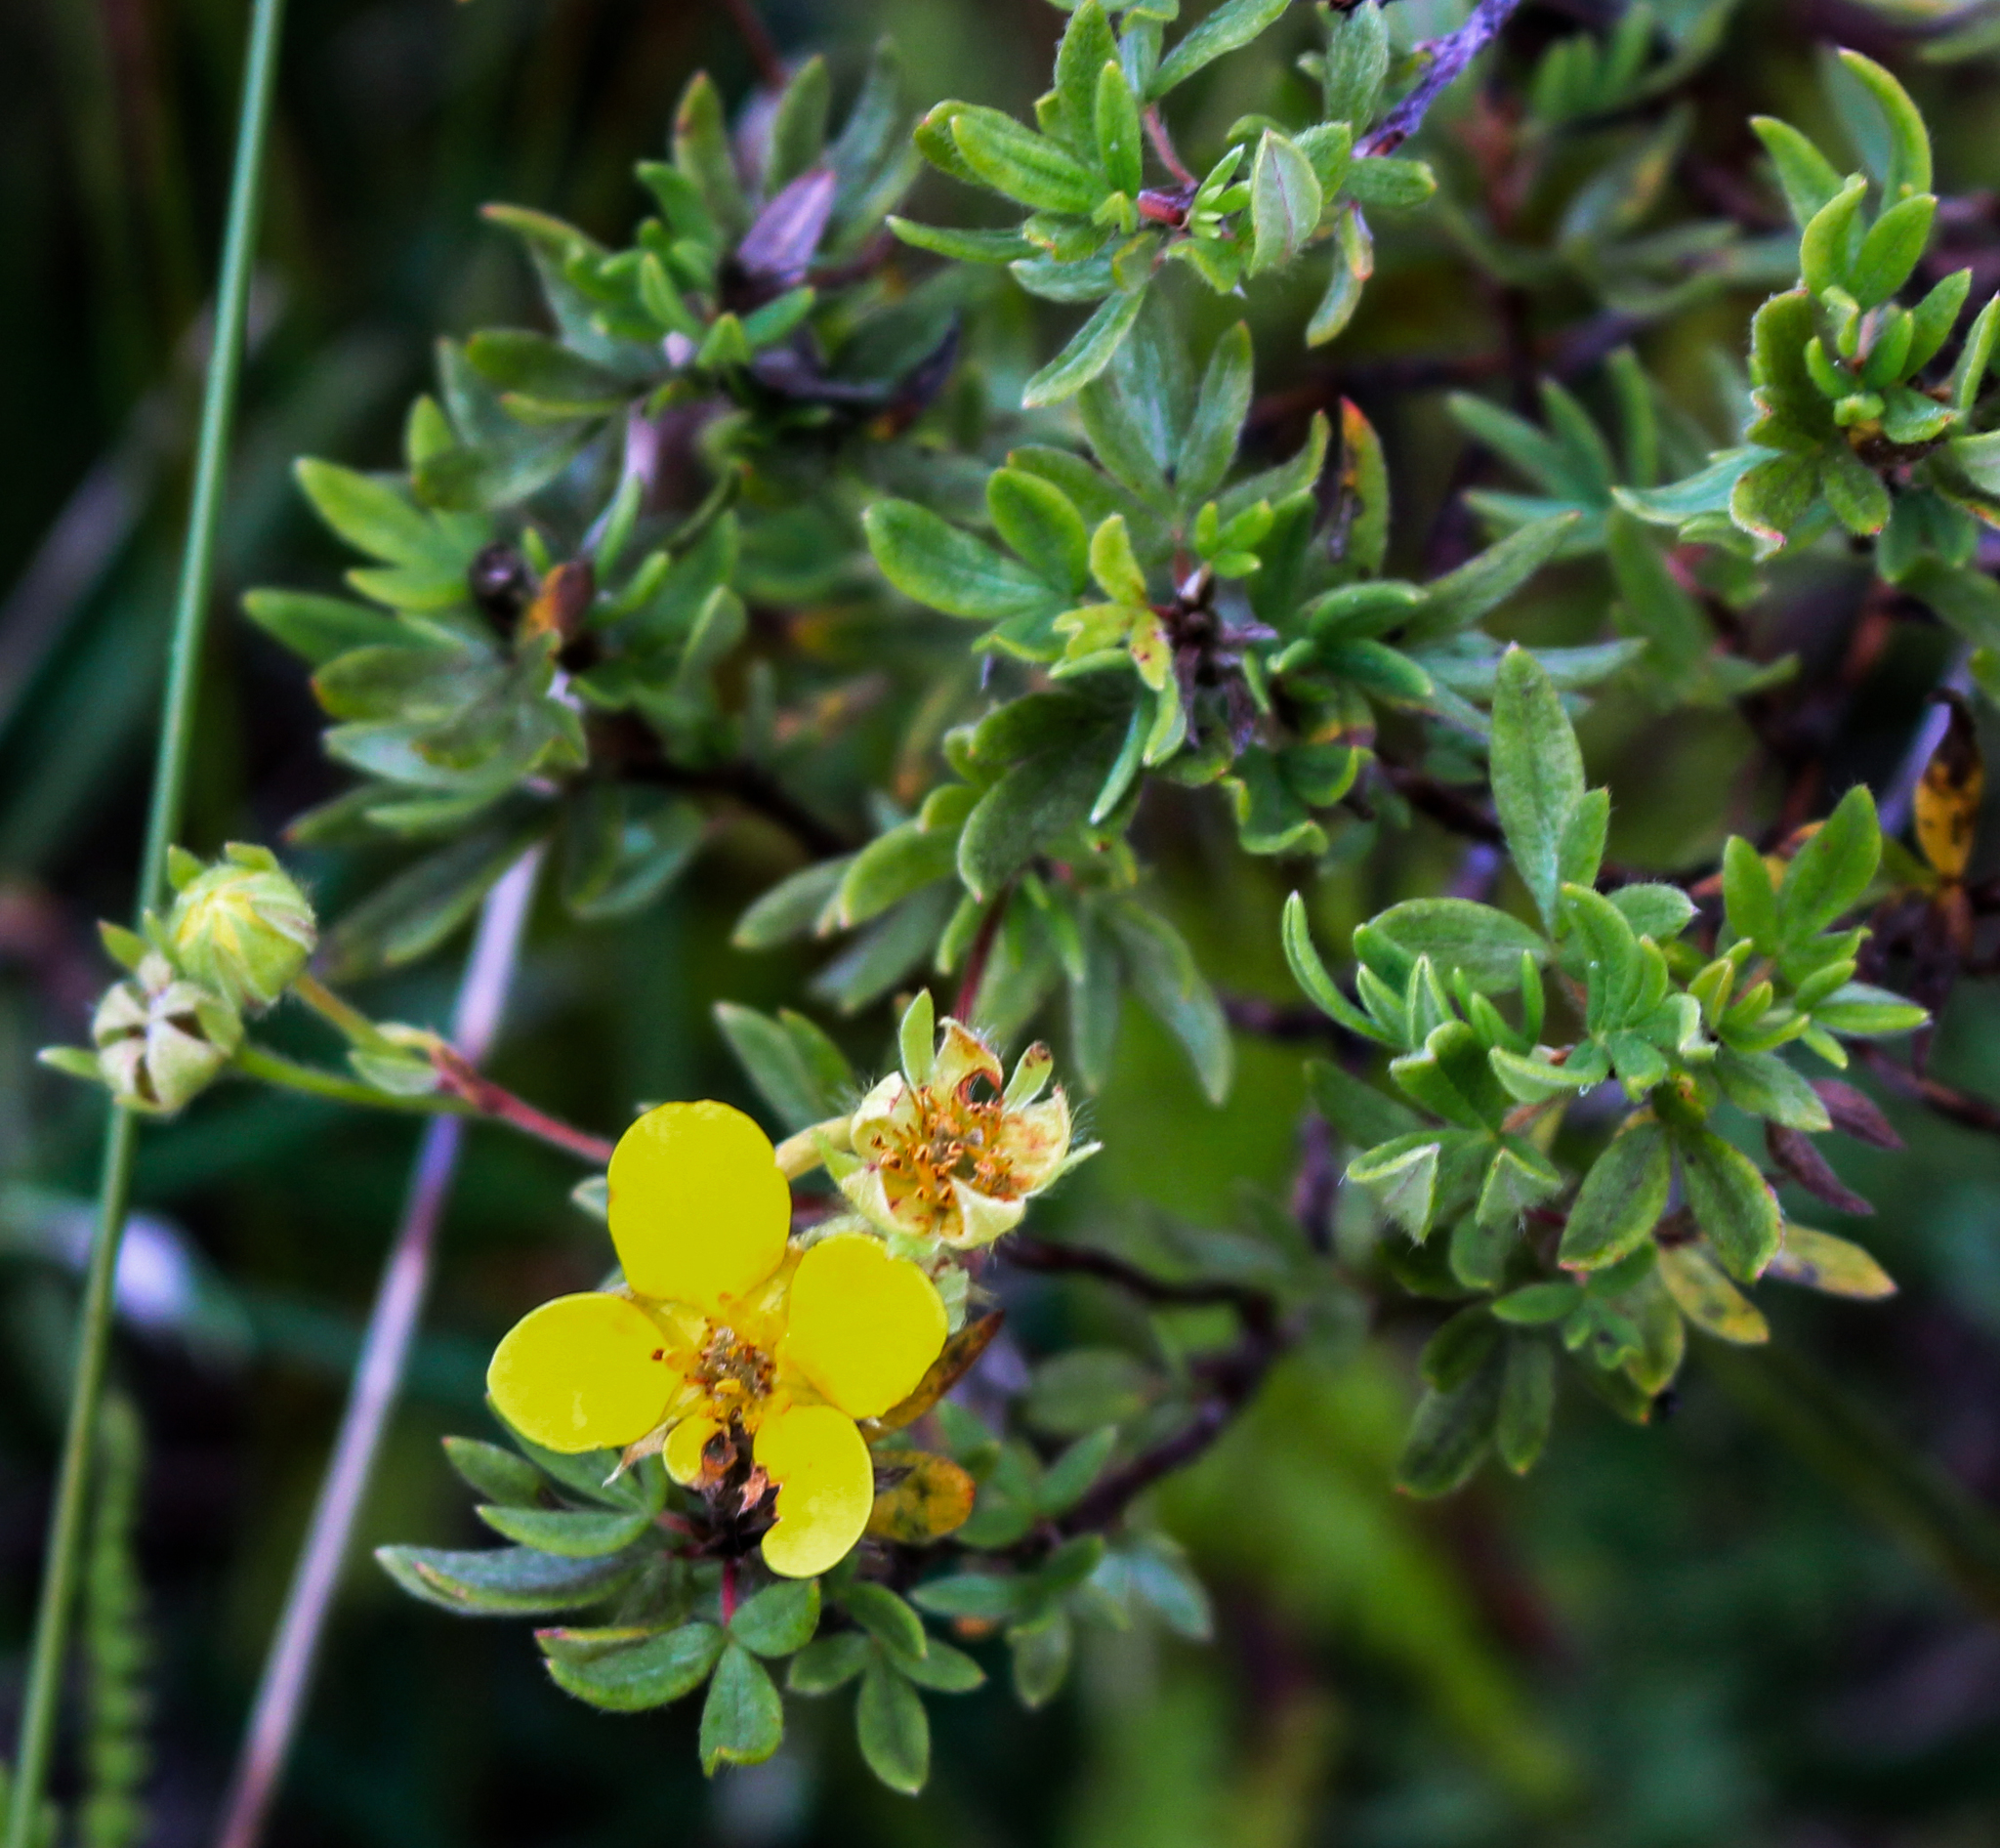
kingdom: Plantae
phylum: Tracheophyta
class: Magnoliopsida
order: Rosales
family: Rosaceae
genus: Dasiphora
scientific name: Dasiphora fruticosa
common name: Shrubby cinquefoil
